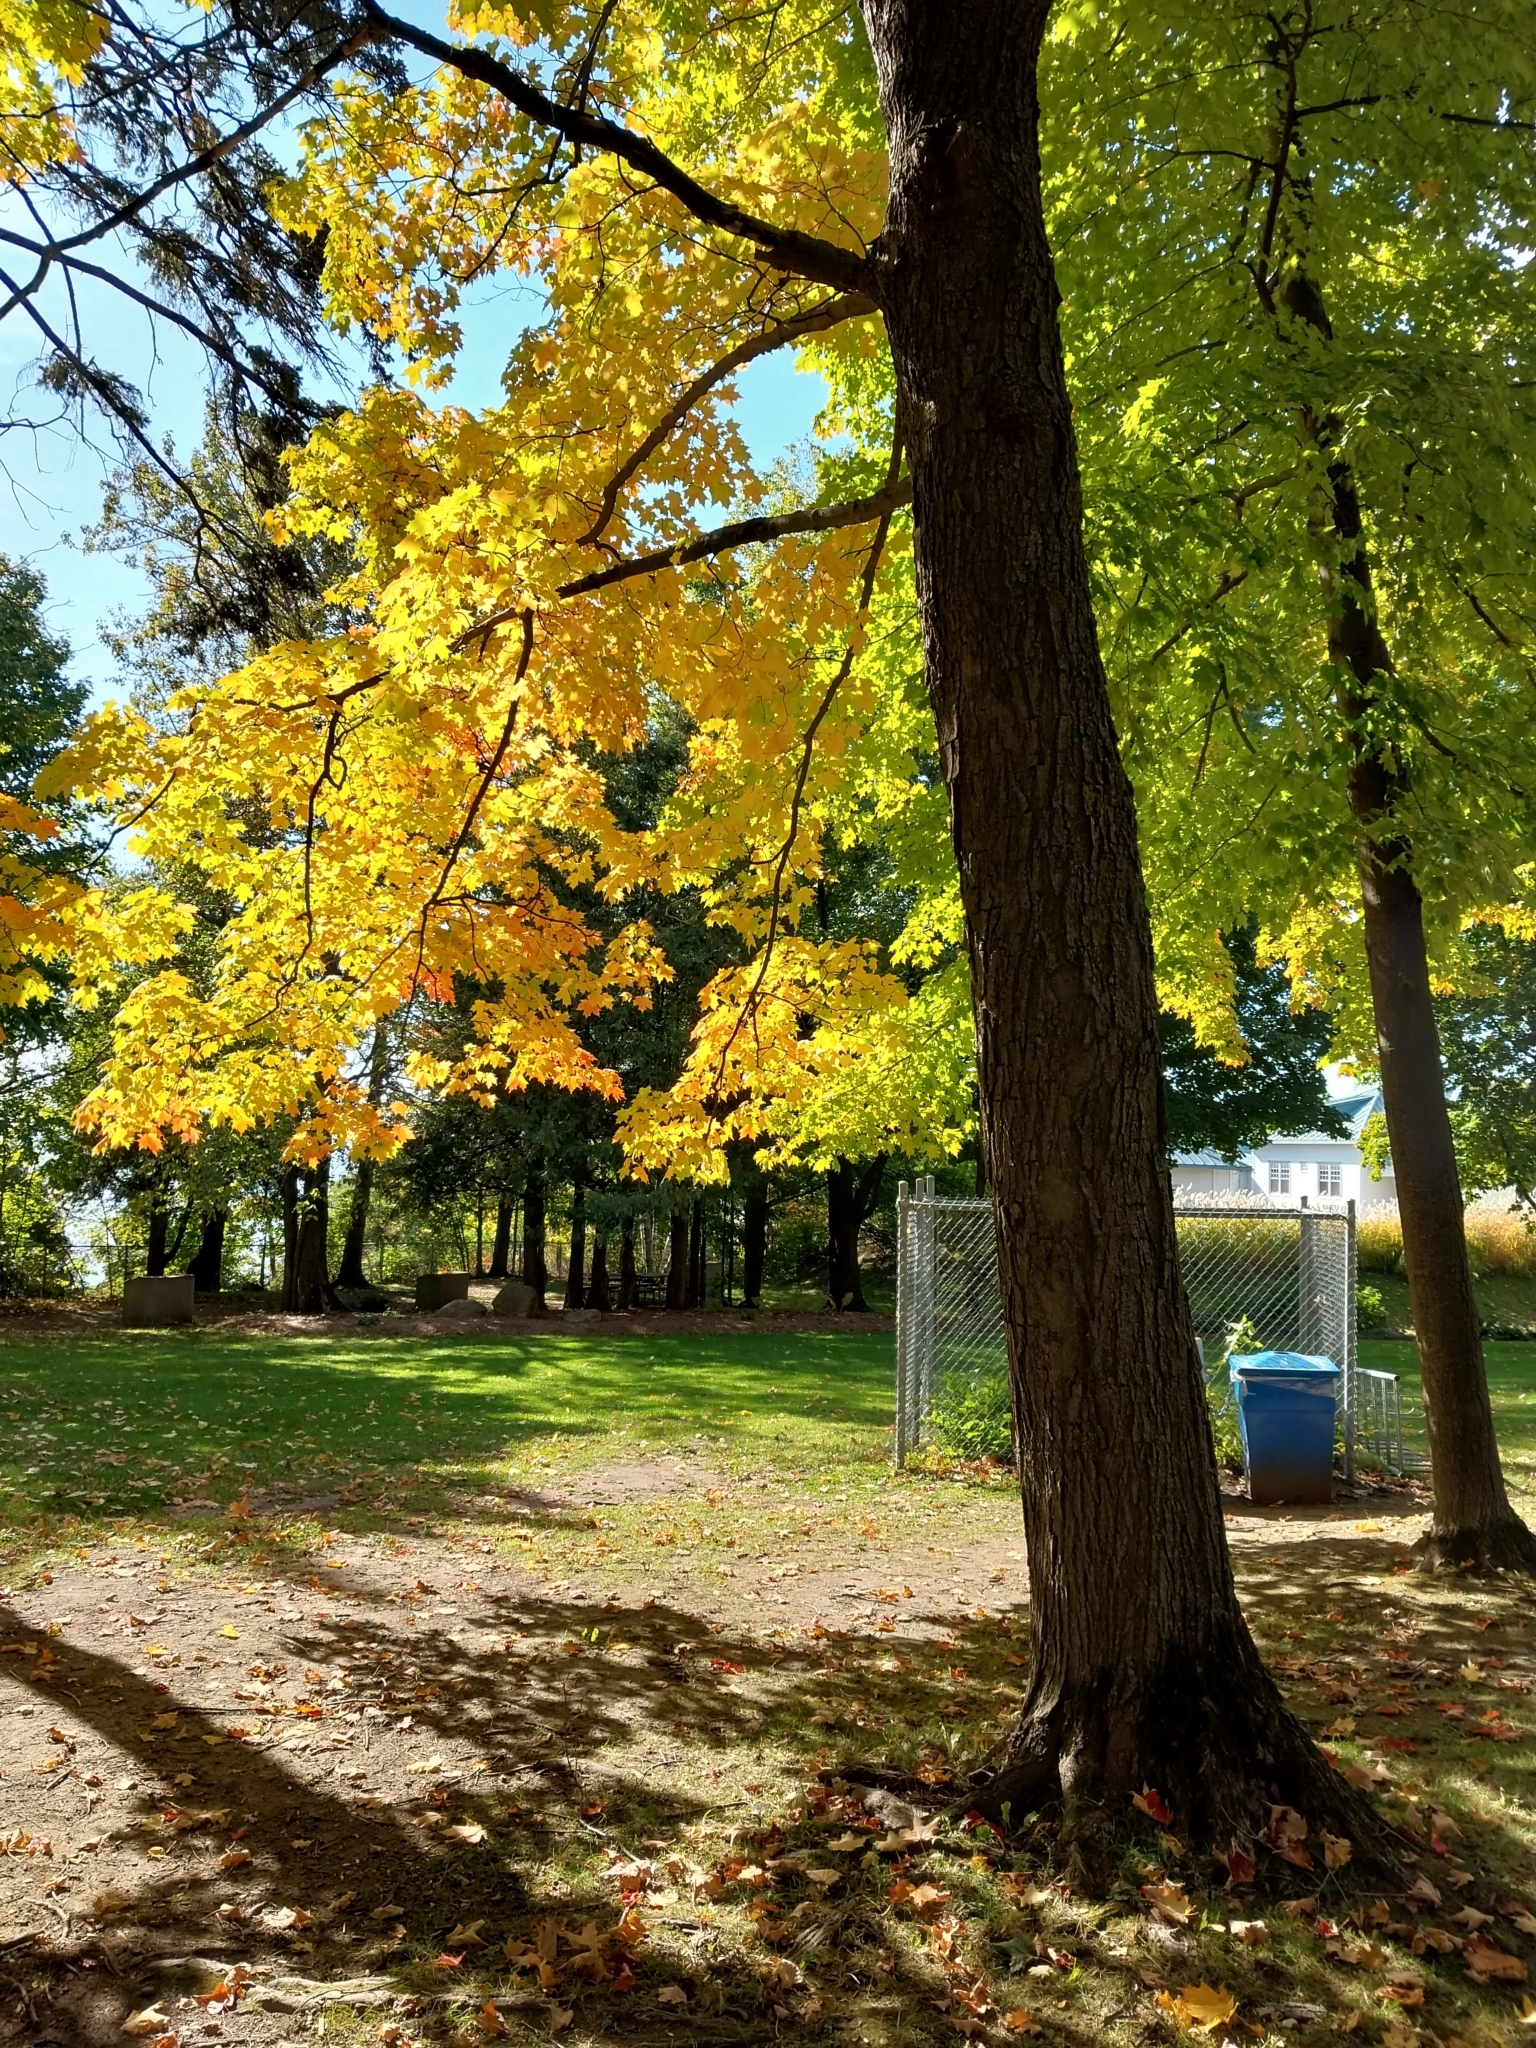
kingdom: Plantae
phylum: Tracheophyta
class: Magnoliopsida
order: Sapindales
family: Sapindaceae
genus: Acer
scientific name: Acer saccharum
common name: Sugar maple
